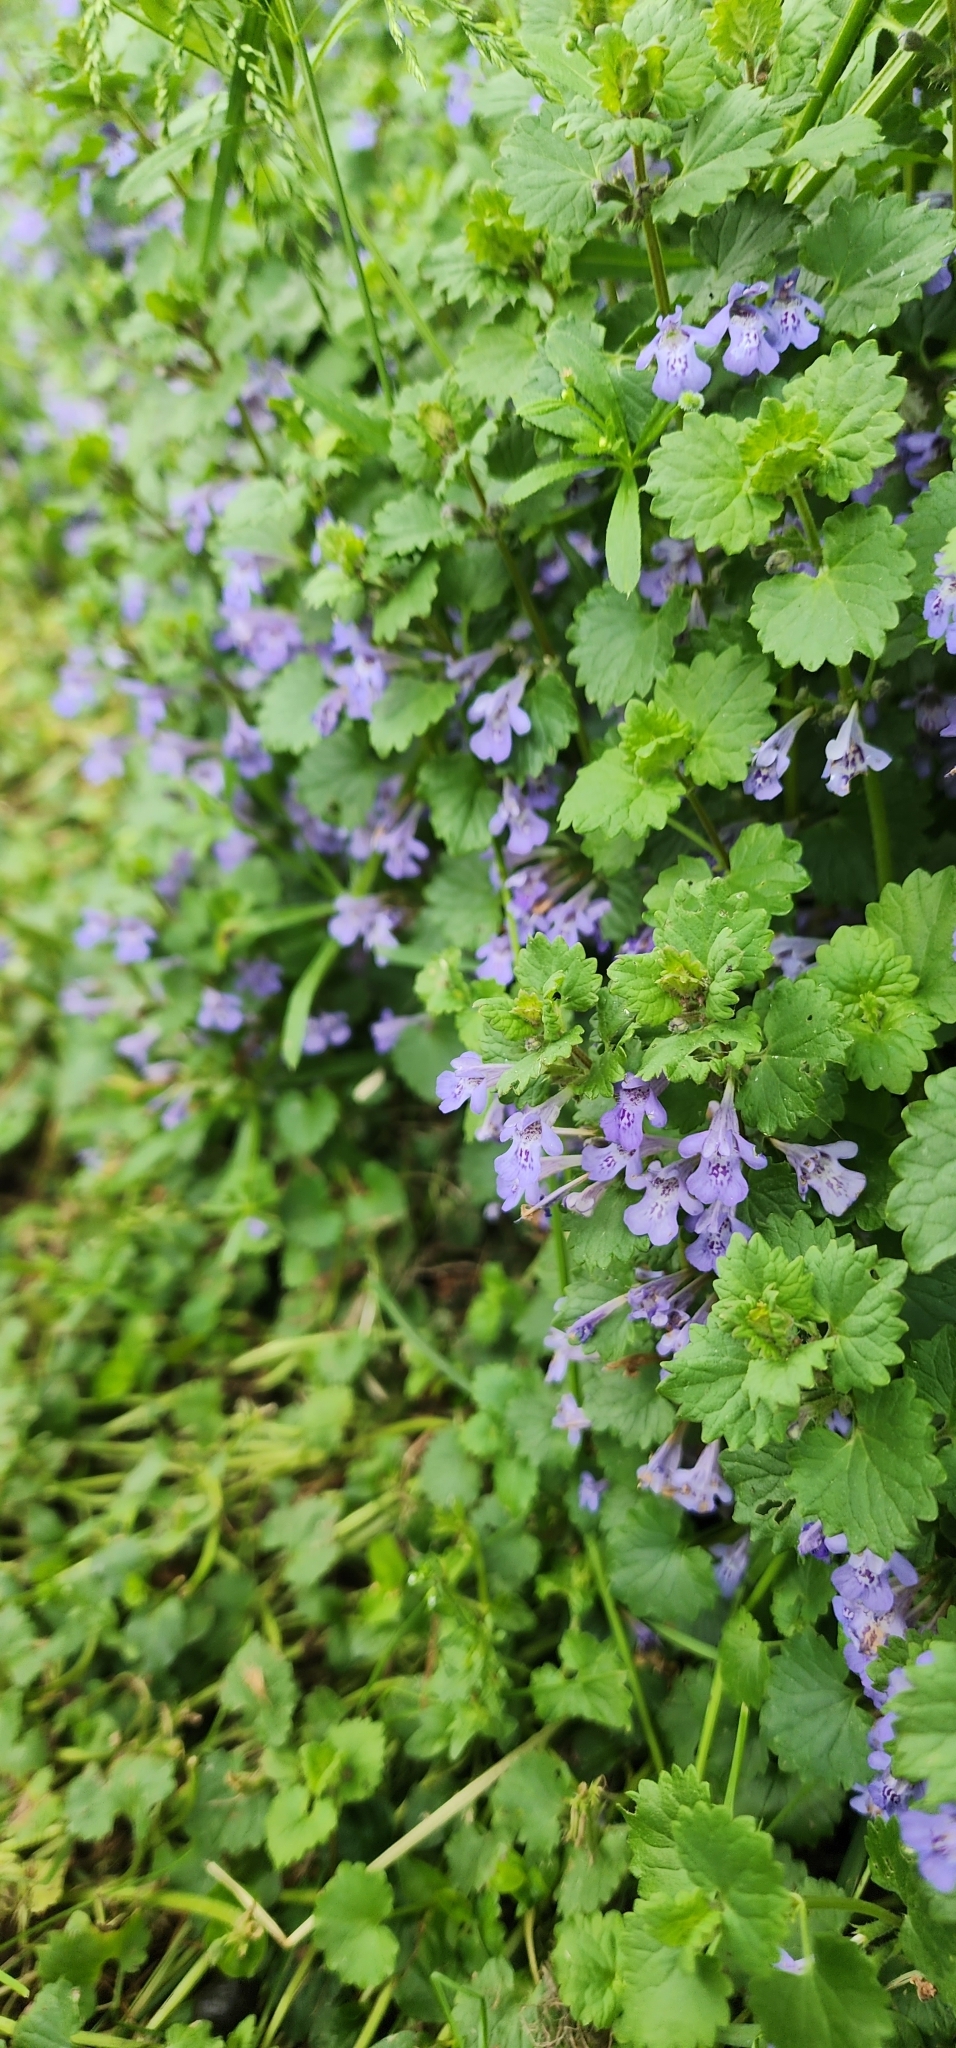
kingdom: Plantae
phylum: Tracheophyta
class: Magnoliopsida
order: Lamiales
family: Lamiaceae
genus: Glechoma
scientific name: Glechoma hederacea
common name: Ground ivy
